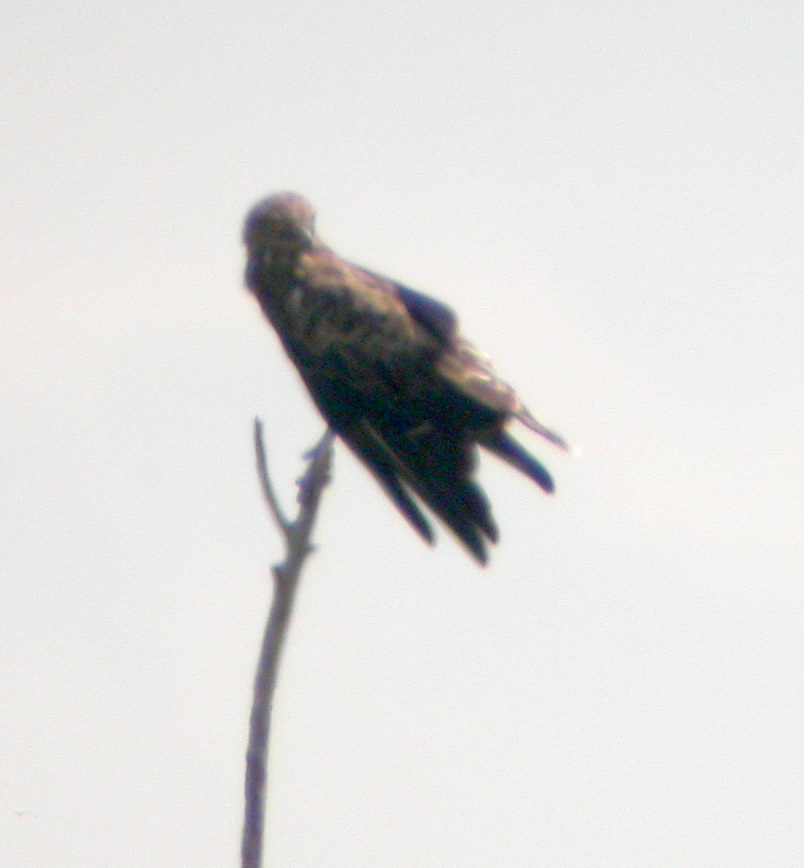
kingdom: Animalia
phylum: Chordata
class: Aves
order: Accipitriformes
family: Accipitridae
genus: Circaetus
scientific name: Circaetus gallicus
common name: Short-toed snake eagle
